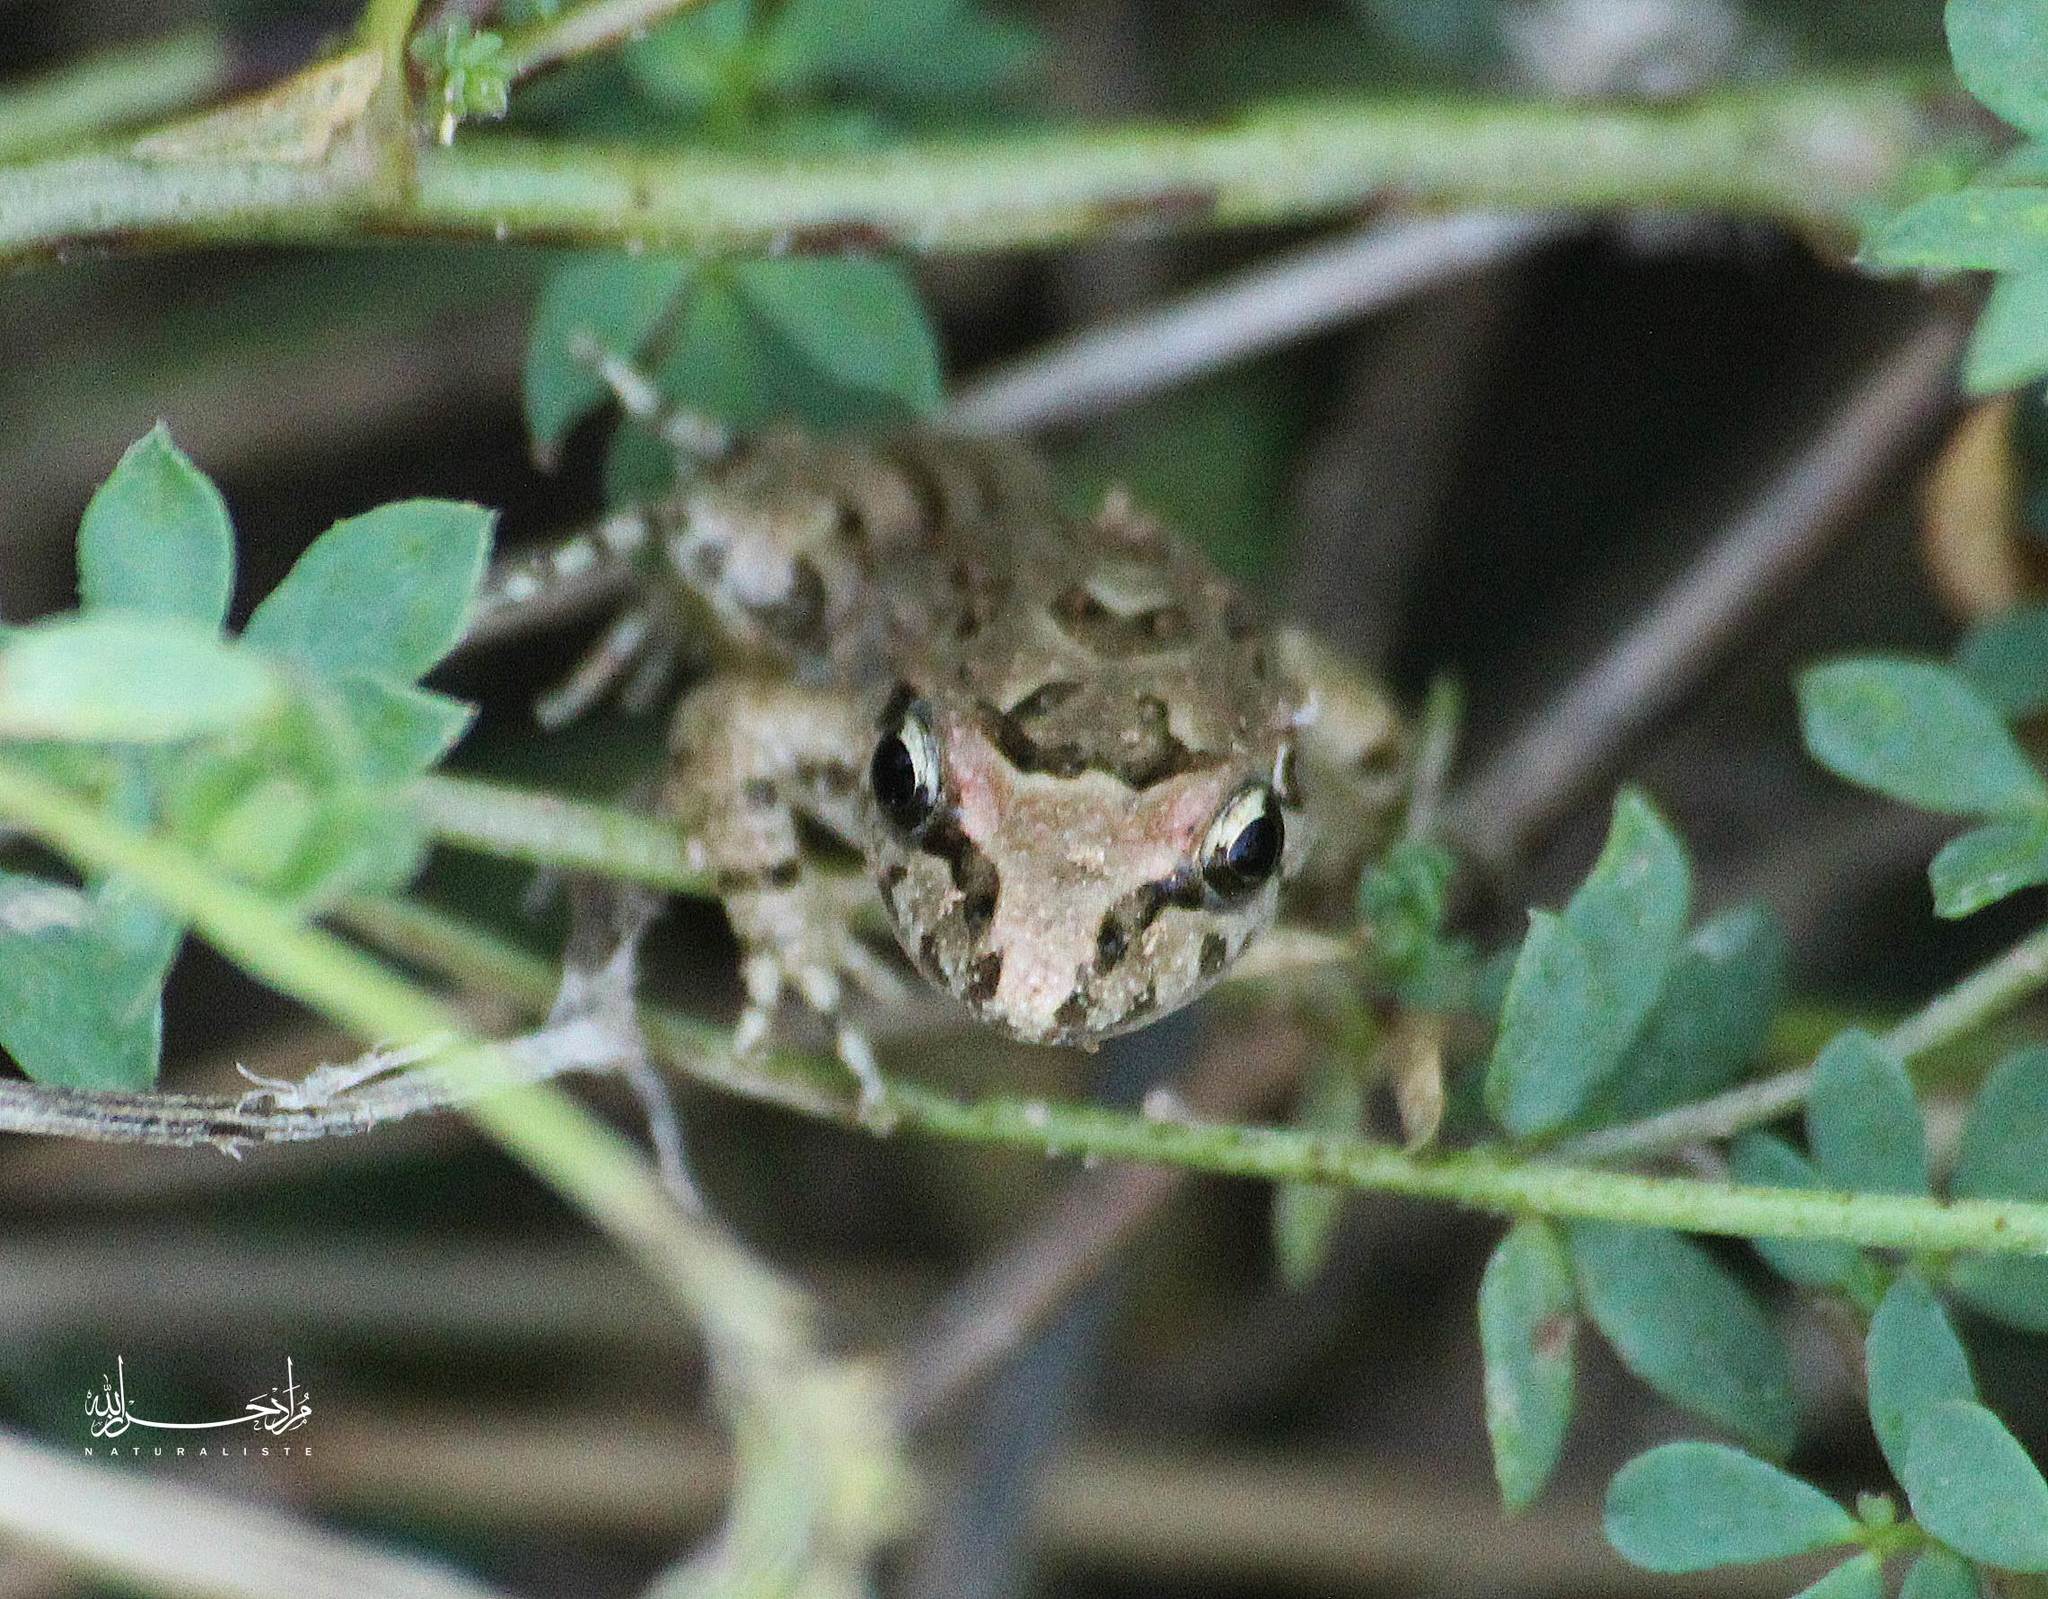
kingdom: Animalia
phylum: Chordata
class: Amphibia
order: Anura
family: Alytidae
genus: Discoglossus
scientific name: Discoglossus pictus
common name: Painted frog
